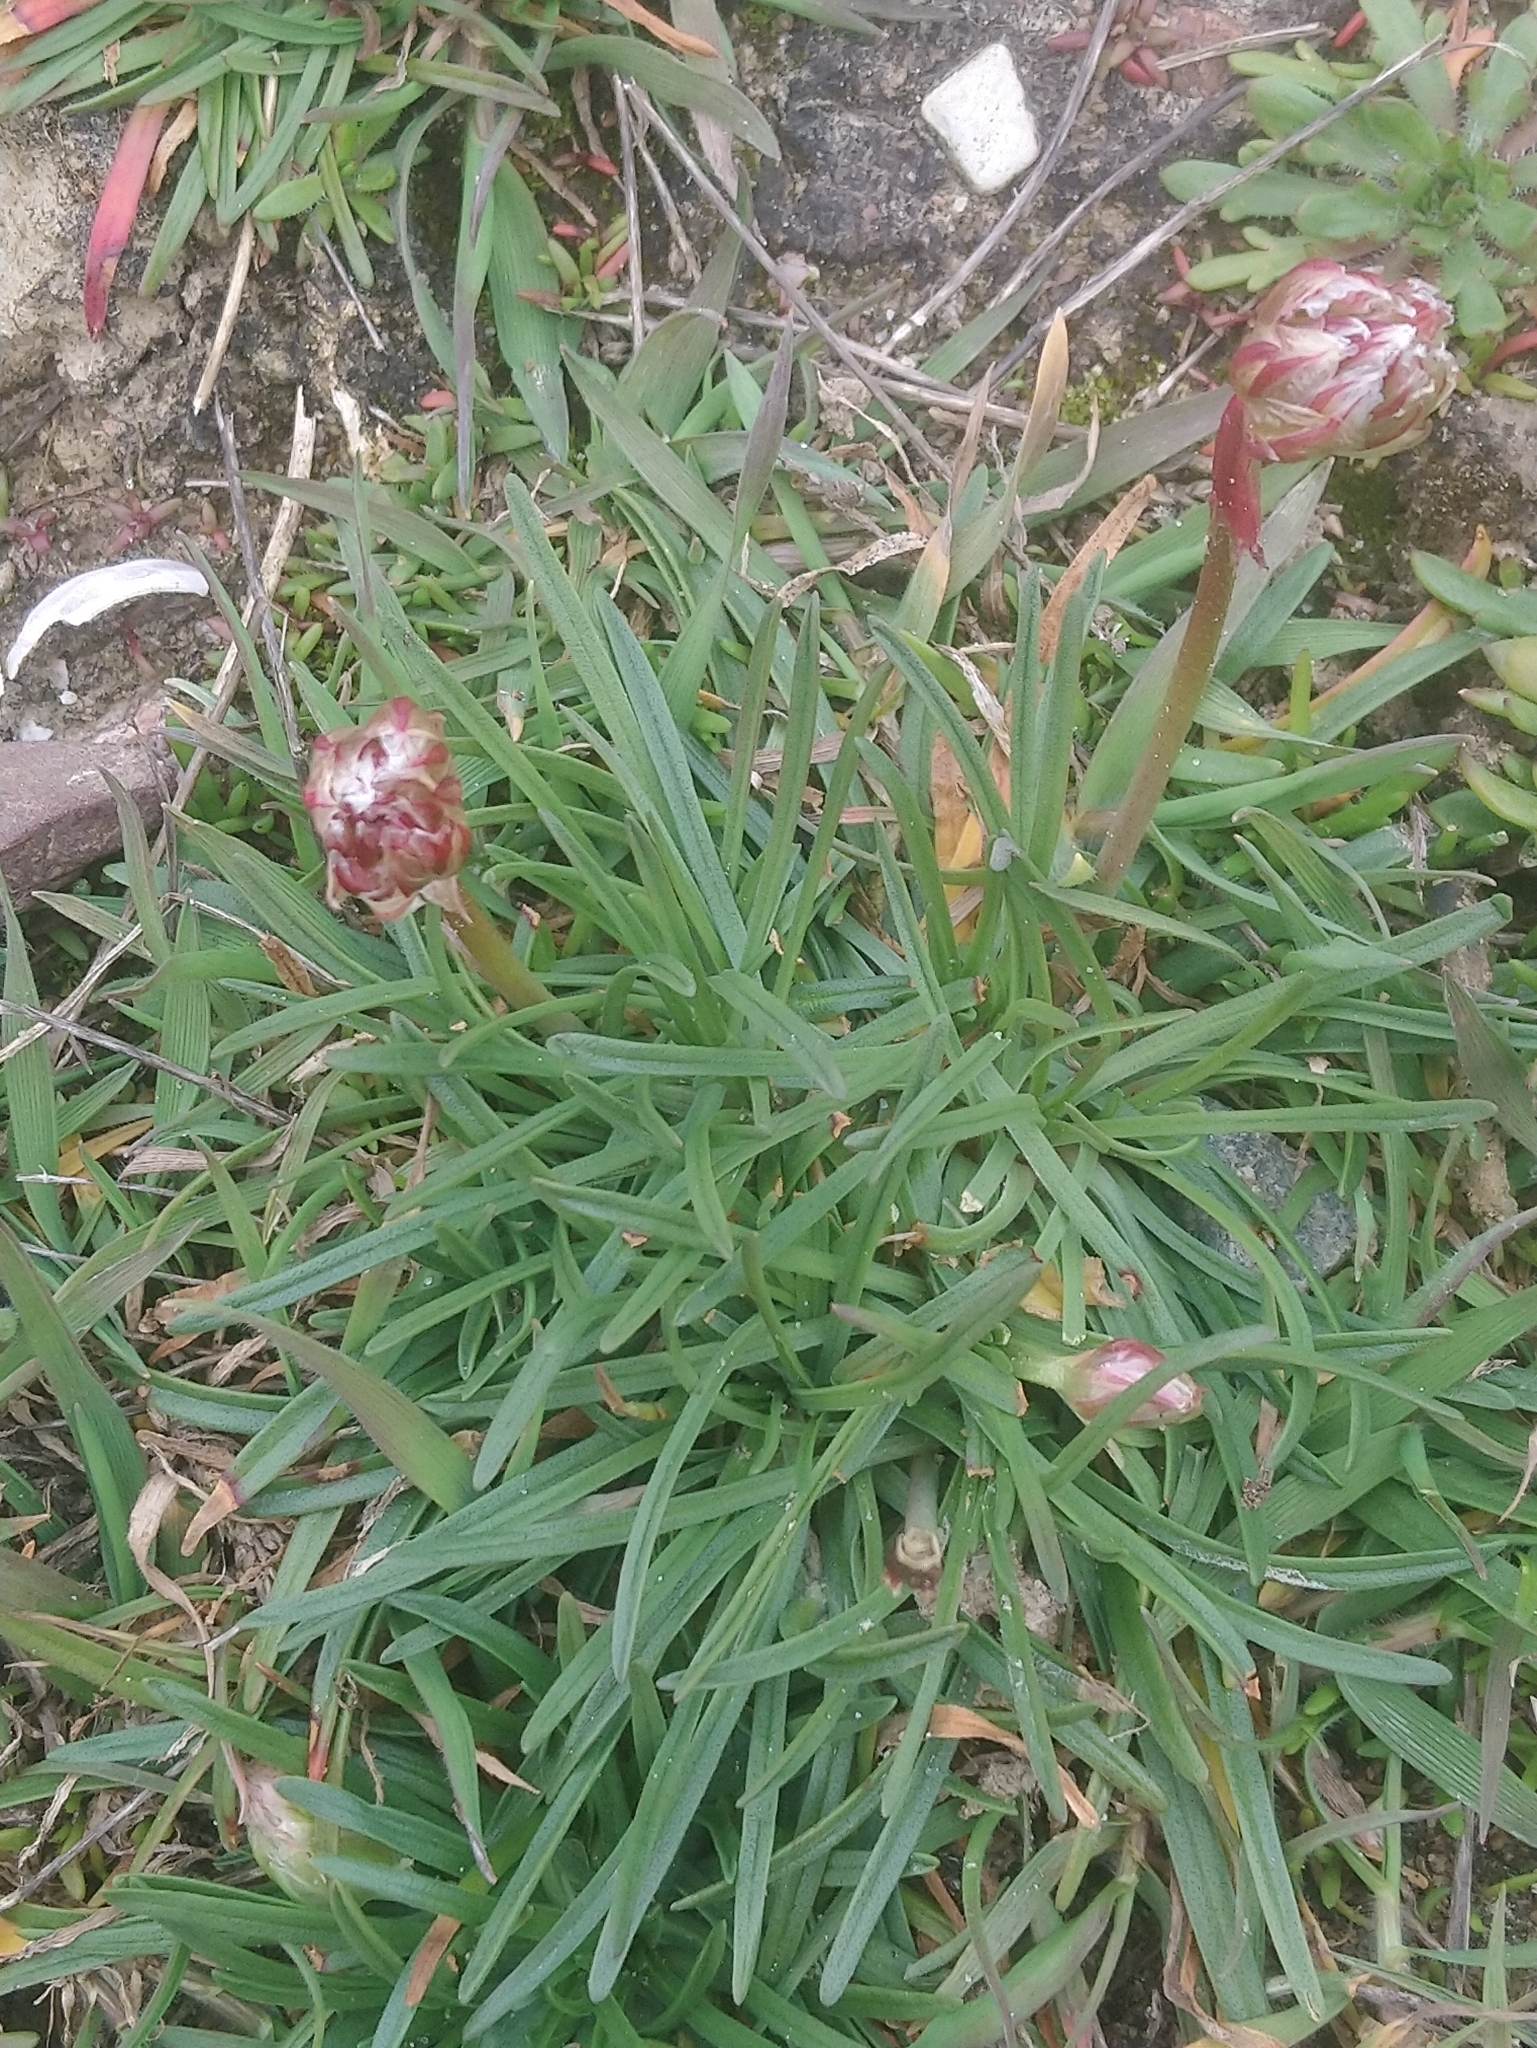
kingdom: Plantae
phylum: Tracheophyta
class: Magnoliopsida
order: Caryophyllales
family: Plumbaginaceae
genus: Armeria
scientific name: Armeria maritima
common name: Thrift
